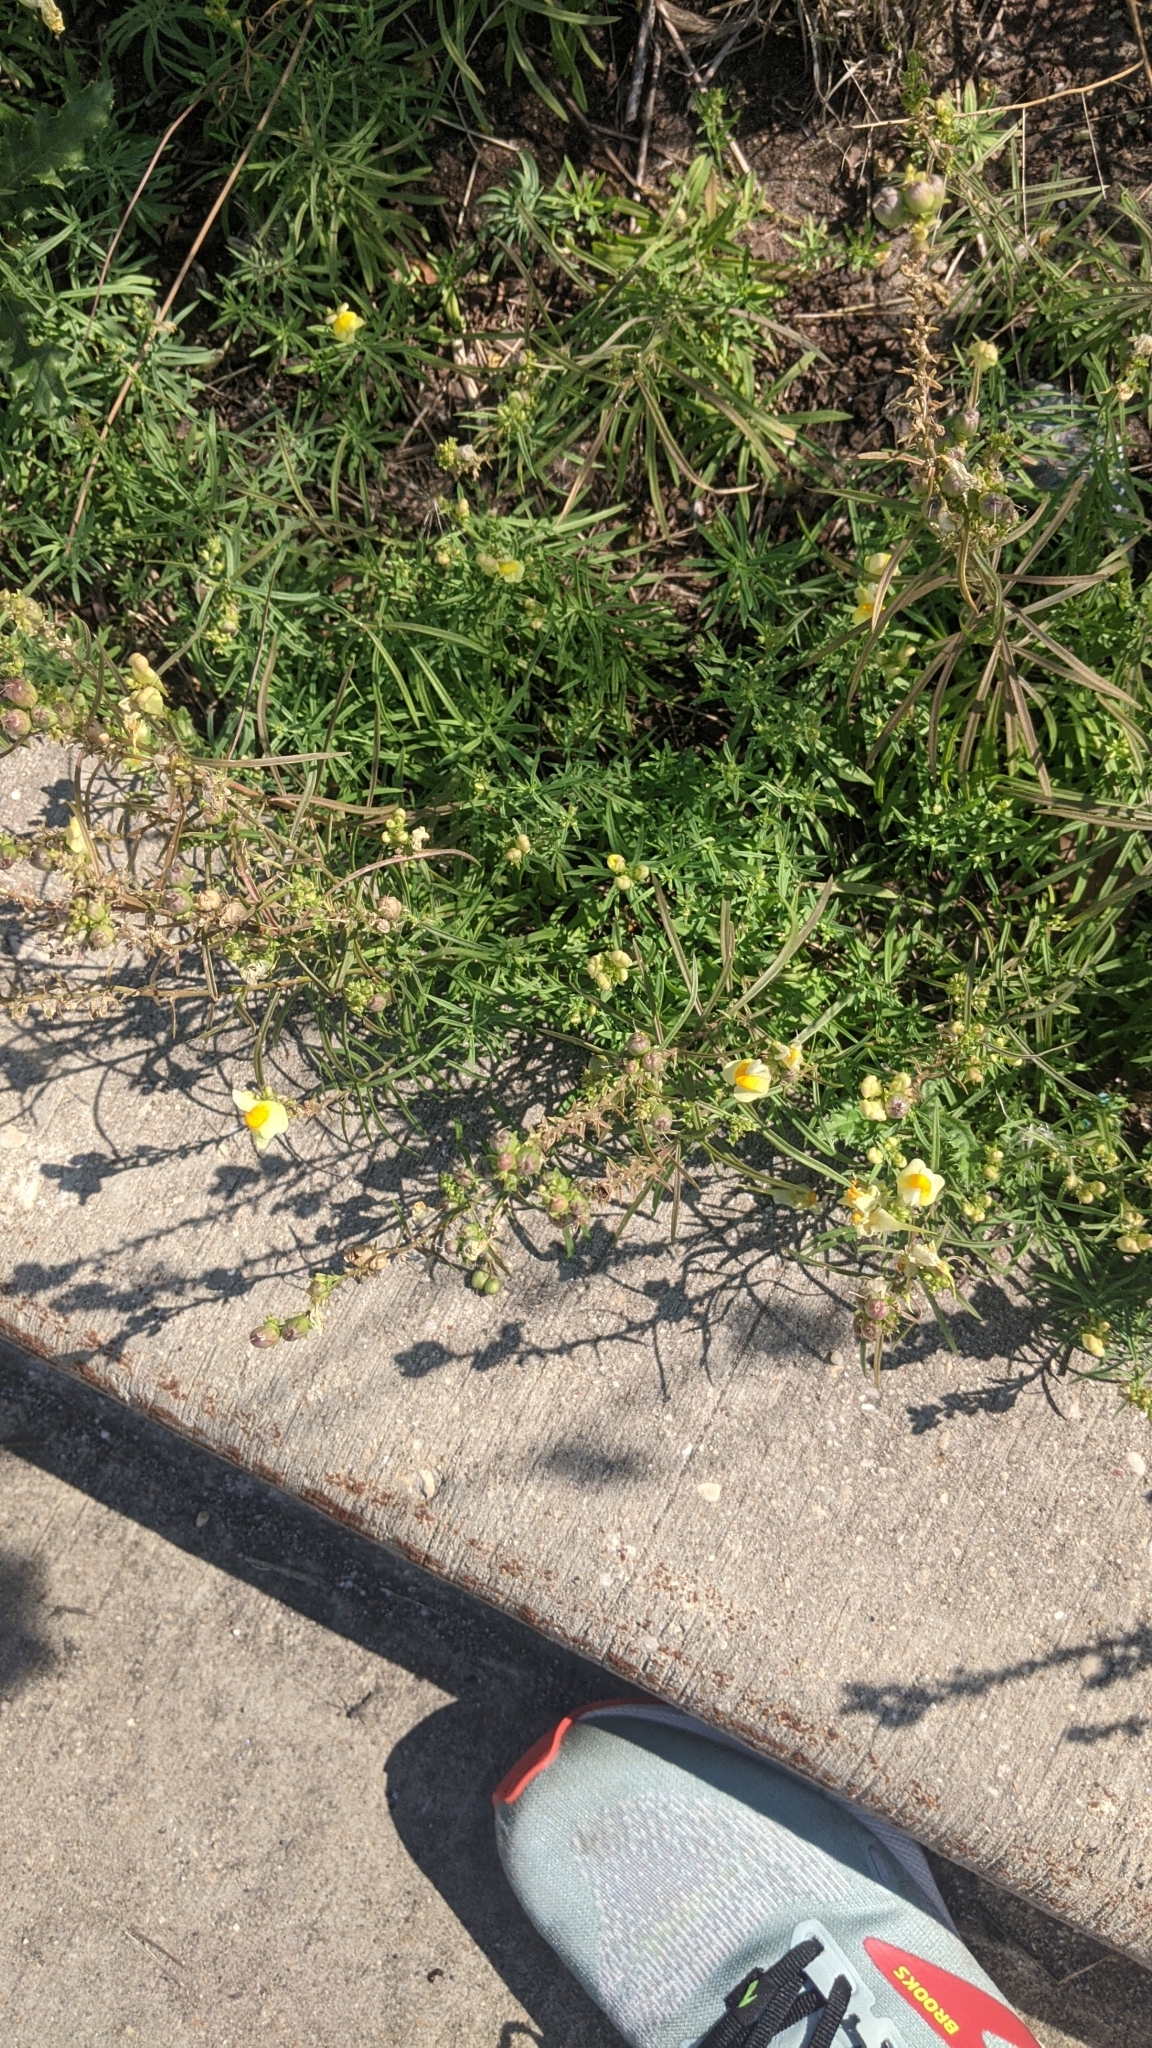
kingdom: Plantae
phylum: Tracheophyta
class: Magnoliopsida
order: Lamiales
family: Plantaginaceae
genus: Linaria
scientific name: Linaria vulgaris
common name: Butter and eggs
